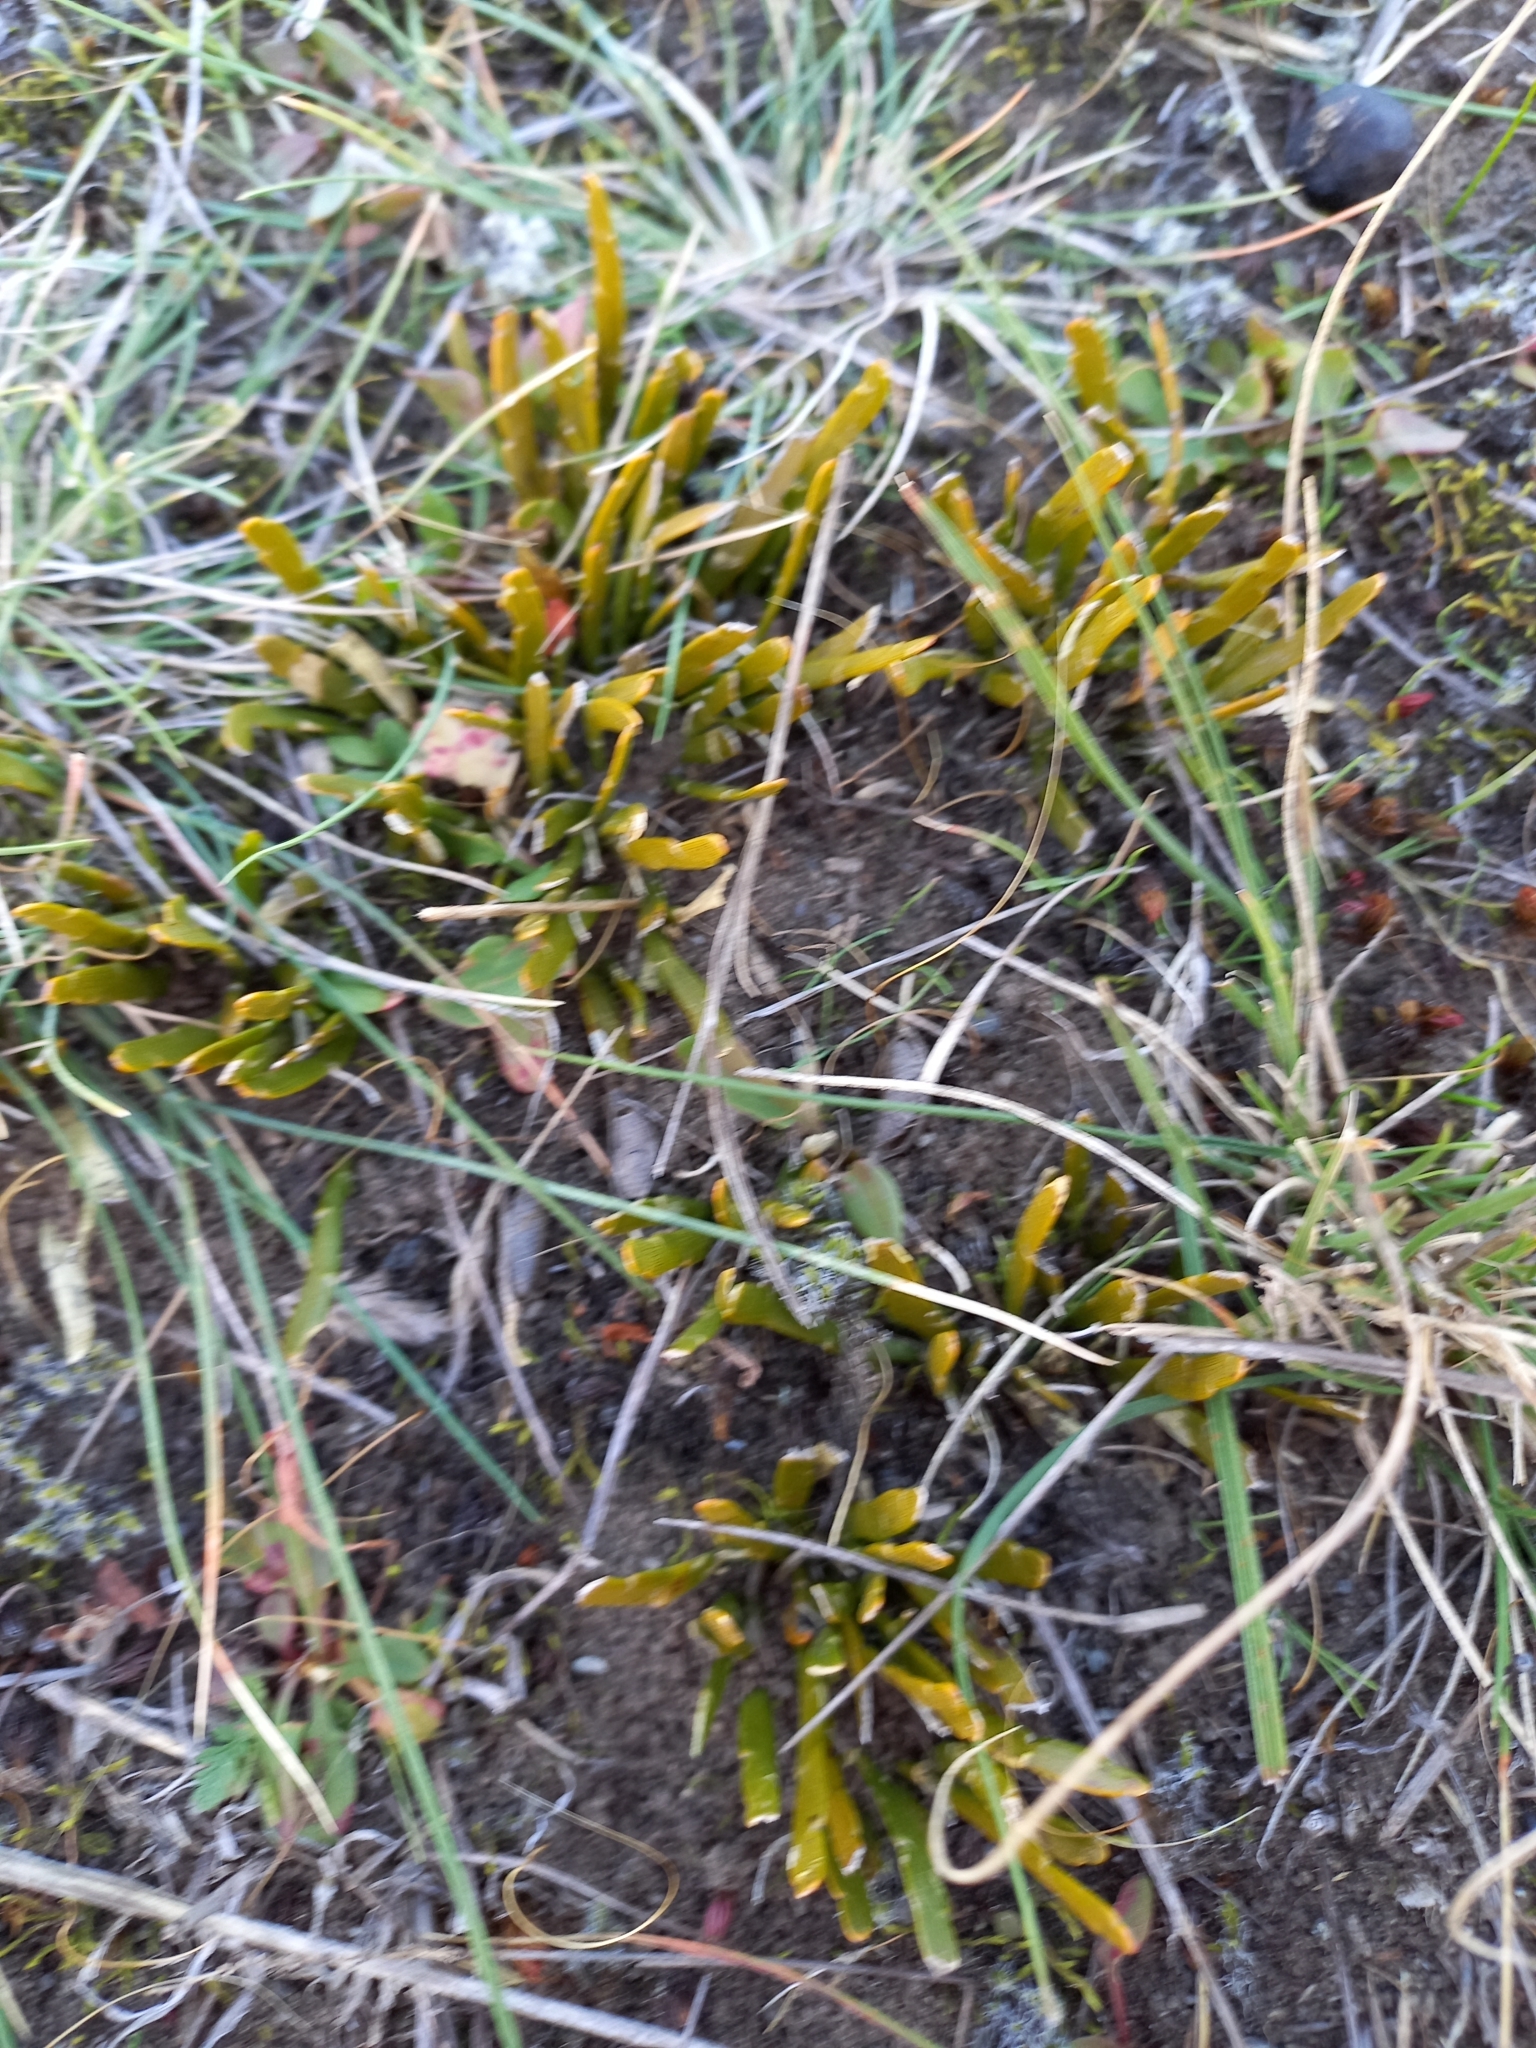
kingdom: Plantae
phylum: Tracheophyta
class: Magnoliopsida
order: Fabales
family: Fabaceae
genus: Carmichaelia
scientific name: Carmichaelia corrugata
